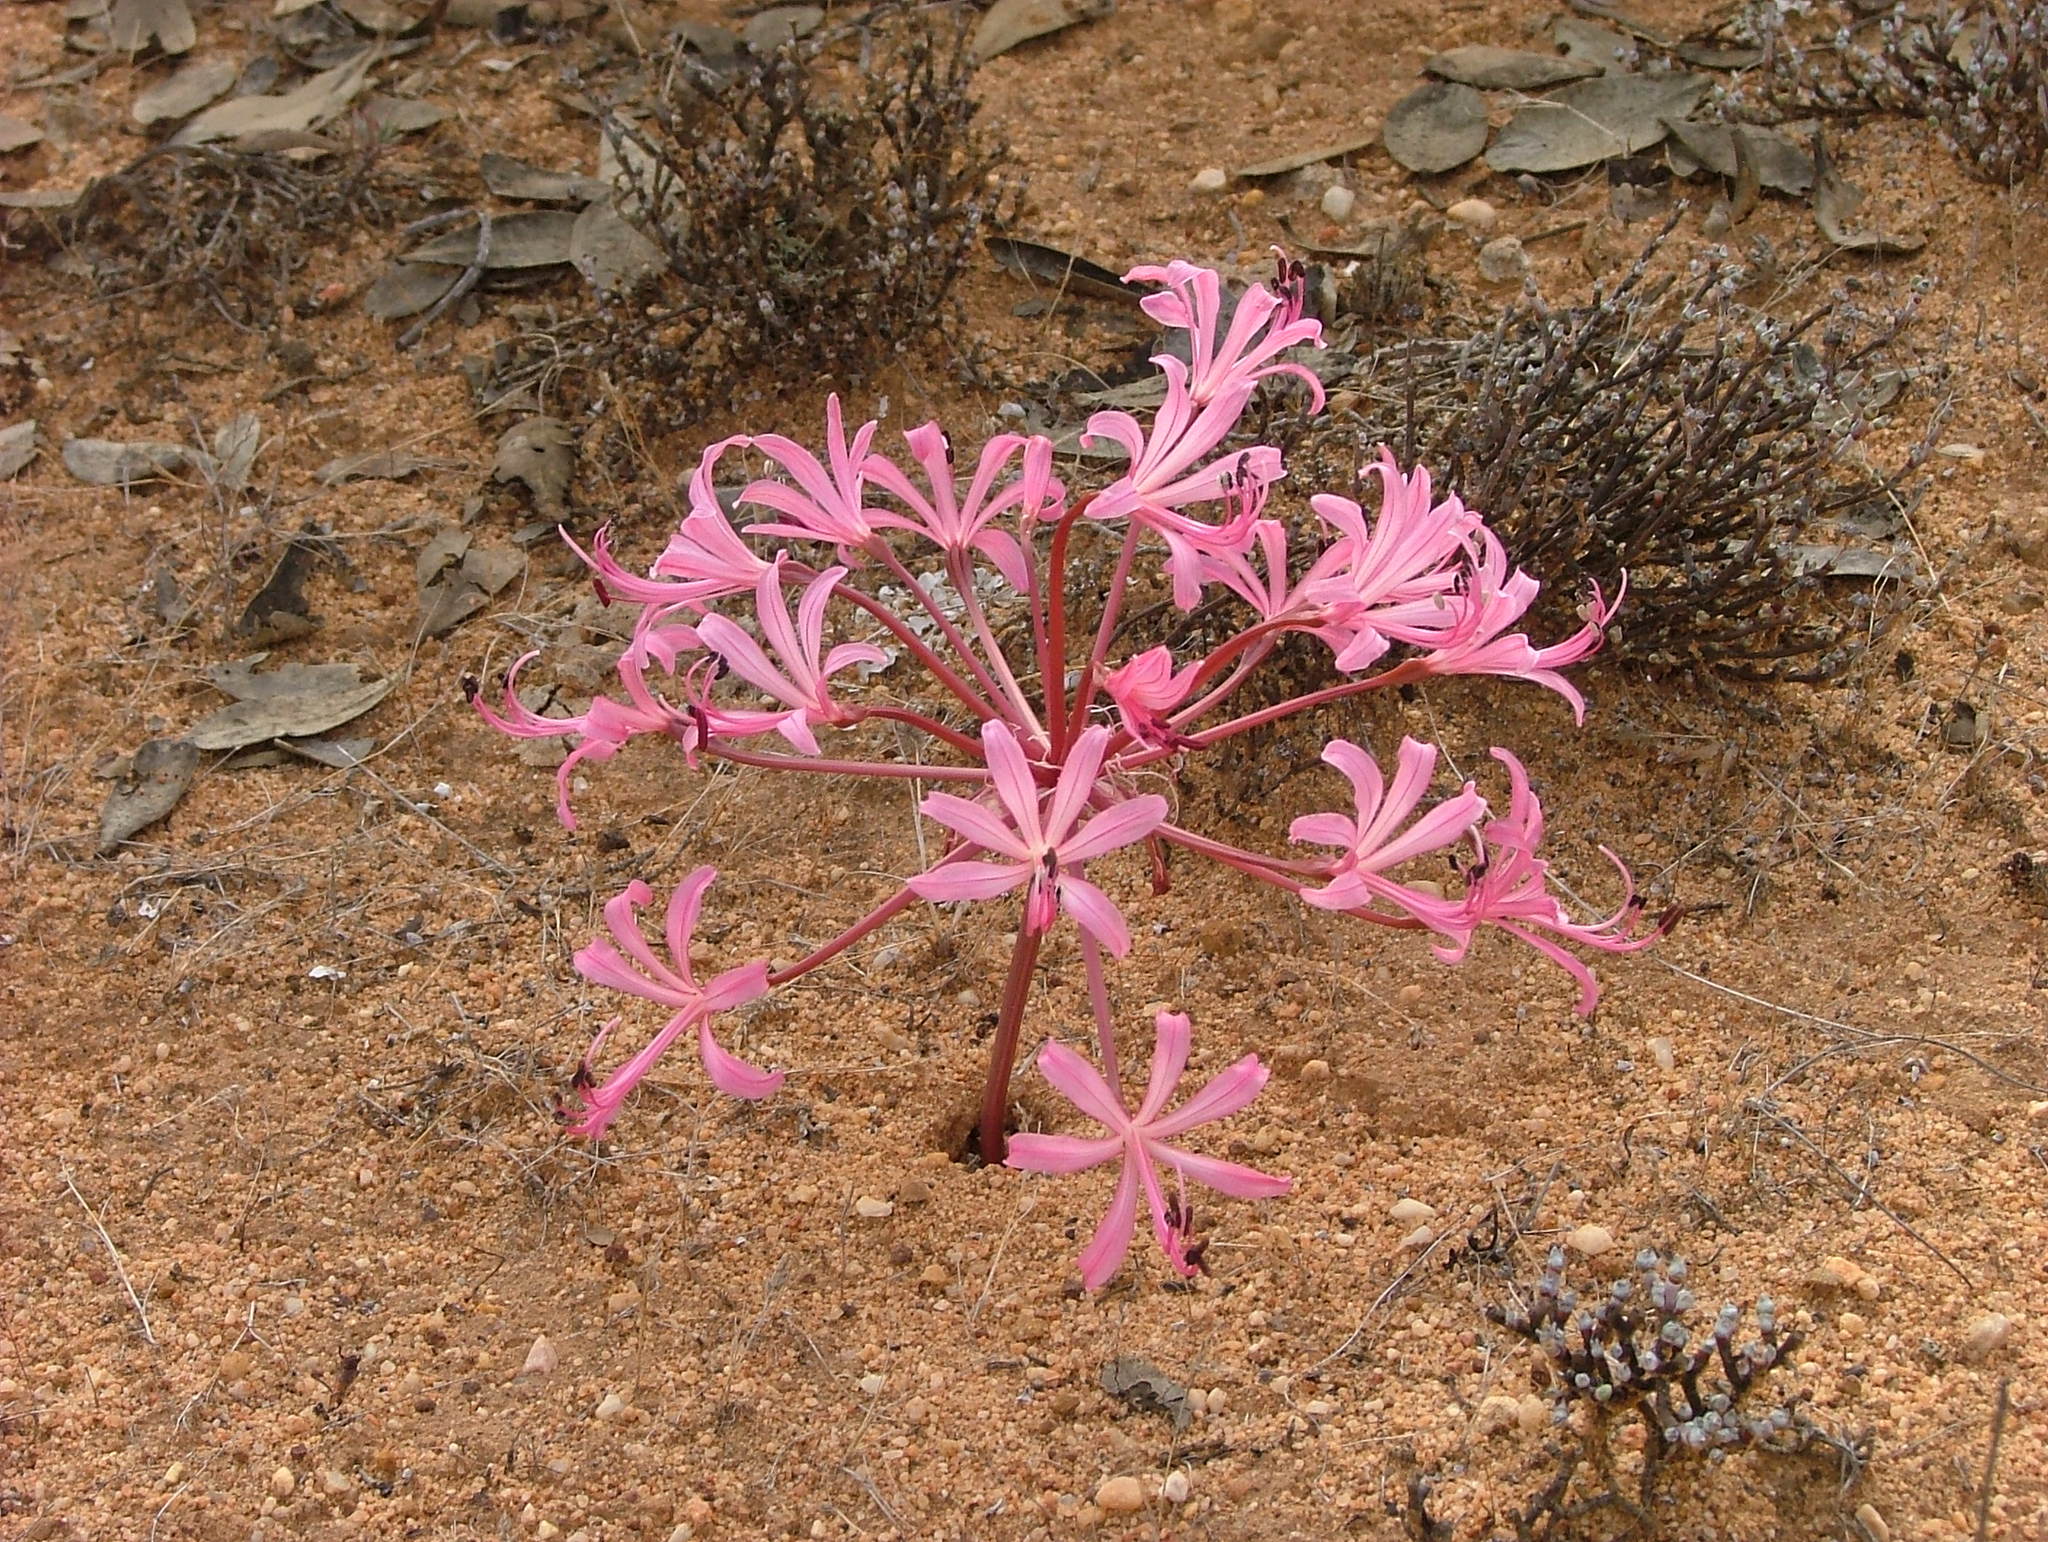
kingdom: Plantae
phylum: Tracheophyta
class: Liliopsida
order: Asparagales
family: Amaryllidaceae
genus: Brunsvigia
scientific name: Brunsvigia nervosa
